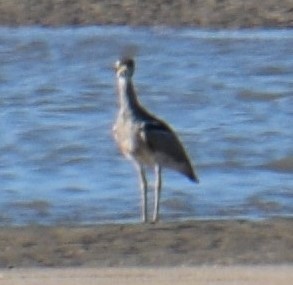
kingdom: Animalia
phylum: Chordata
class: Aves
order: Charadriiformes
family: Burhinidae
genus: Esacus
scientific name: Esacus magnirostris
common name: Beach stone-curlew
